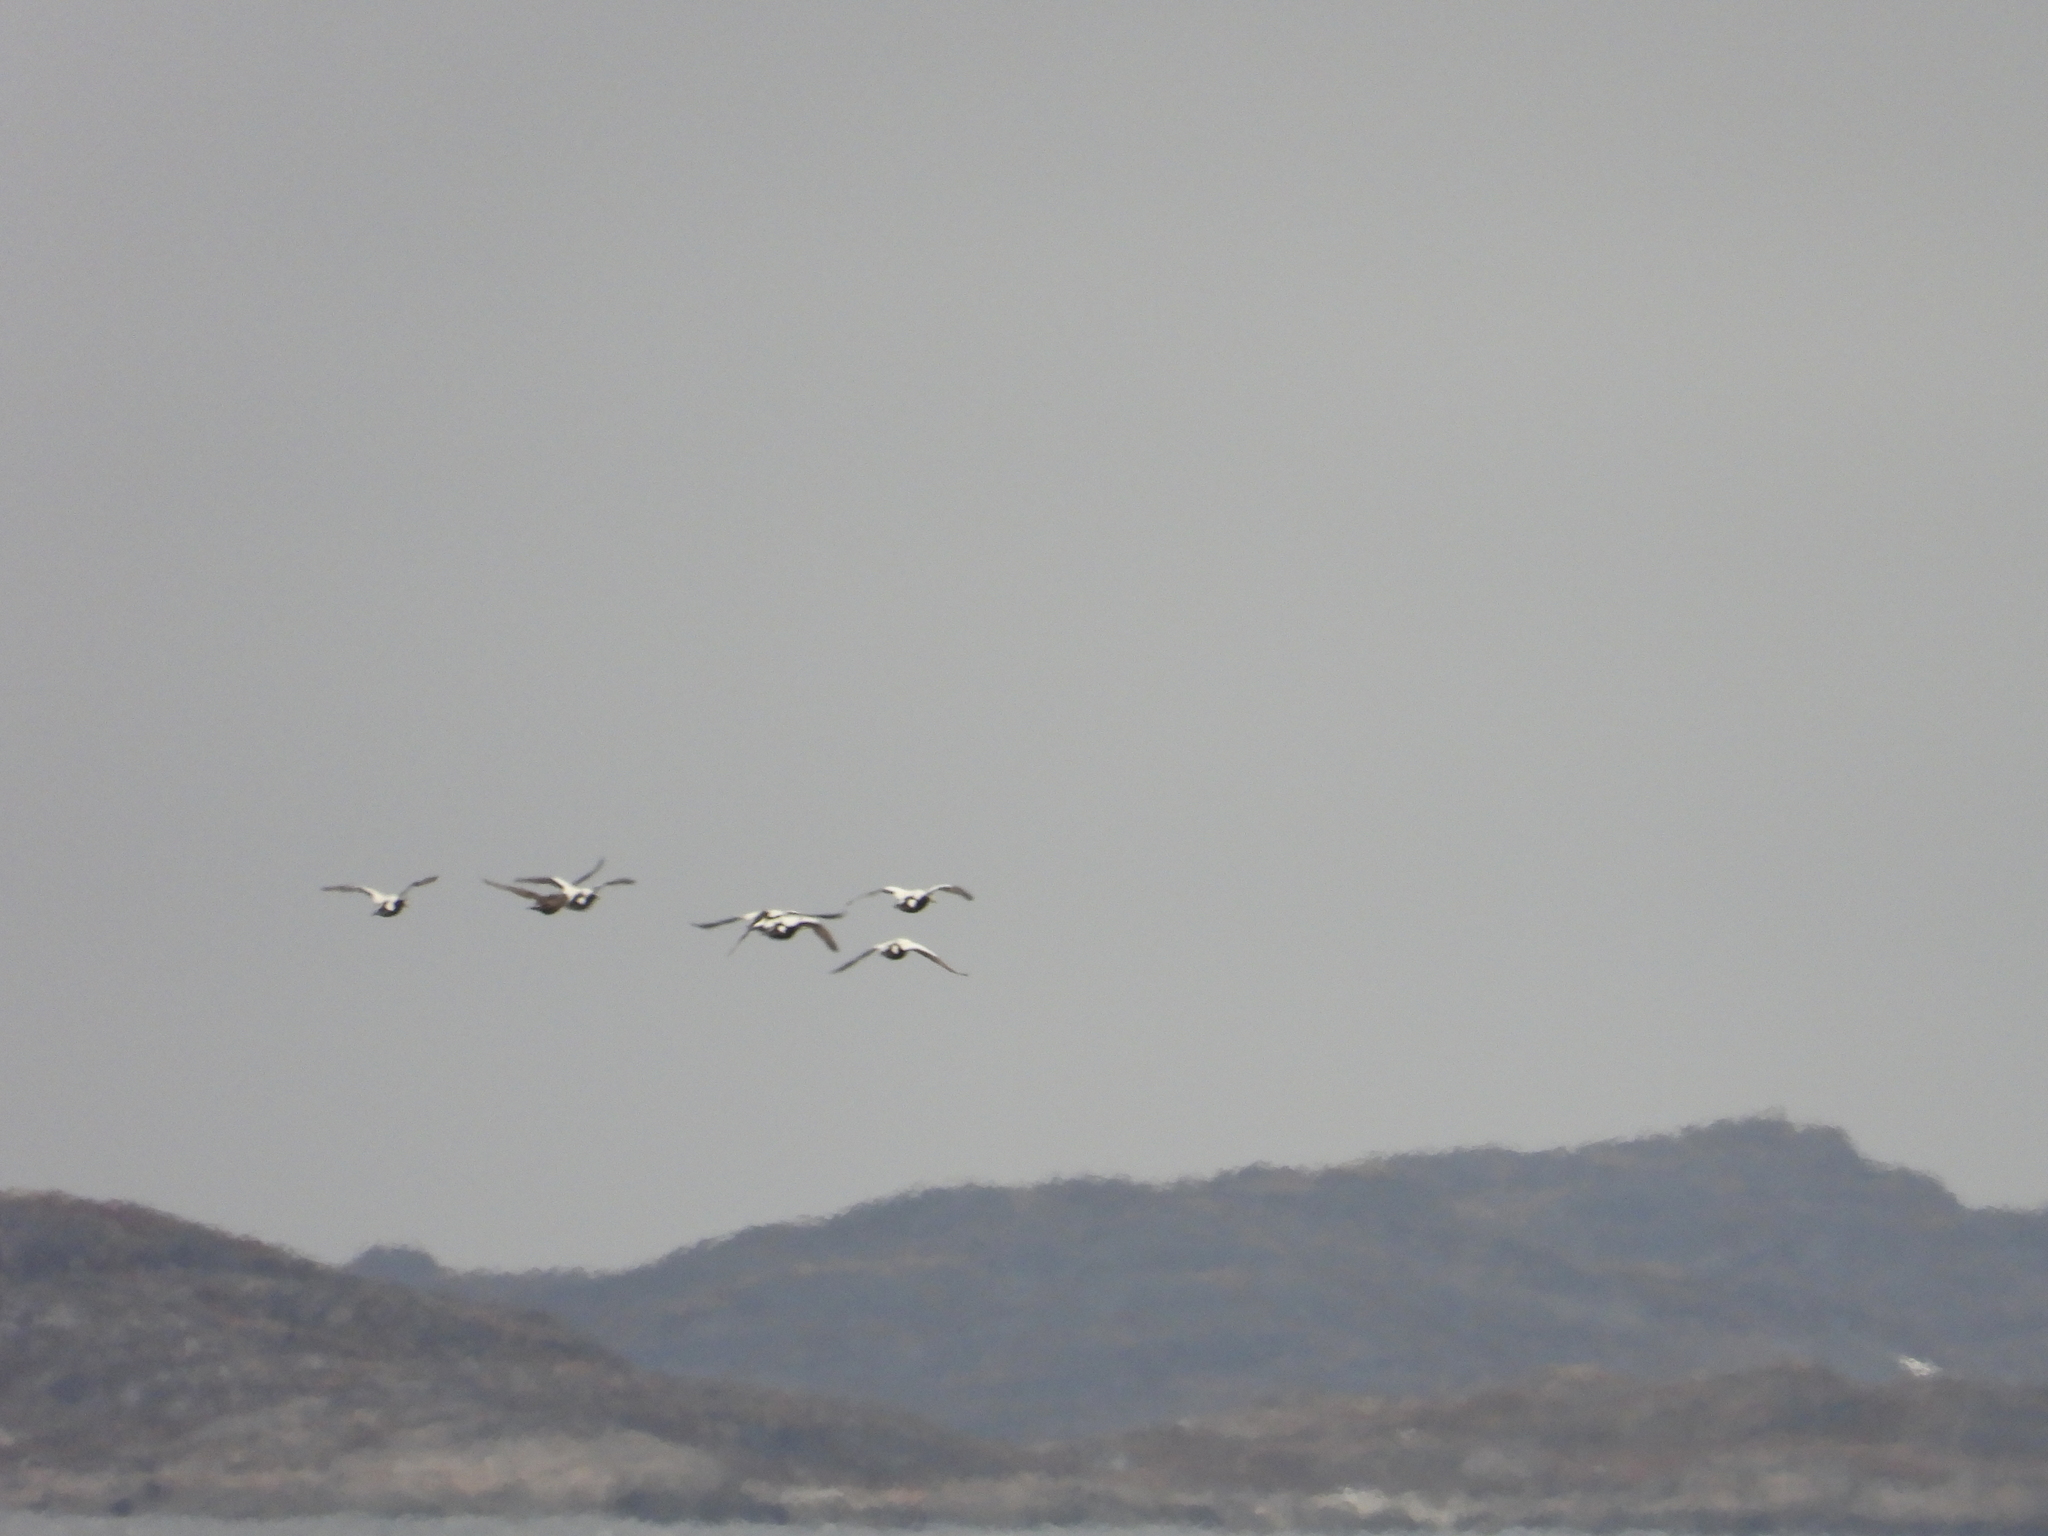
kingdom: Animalia
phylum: Chordata
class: Aves
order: Anseriformes
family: Anatidae
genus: Somateria
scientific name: Somateria mollissima
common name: Common eider
